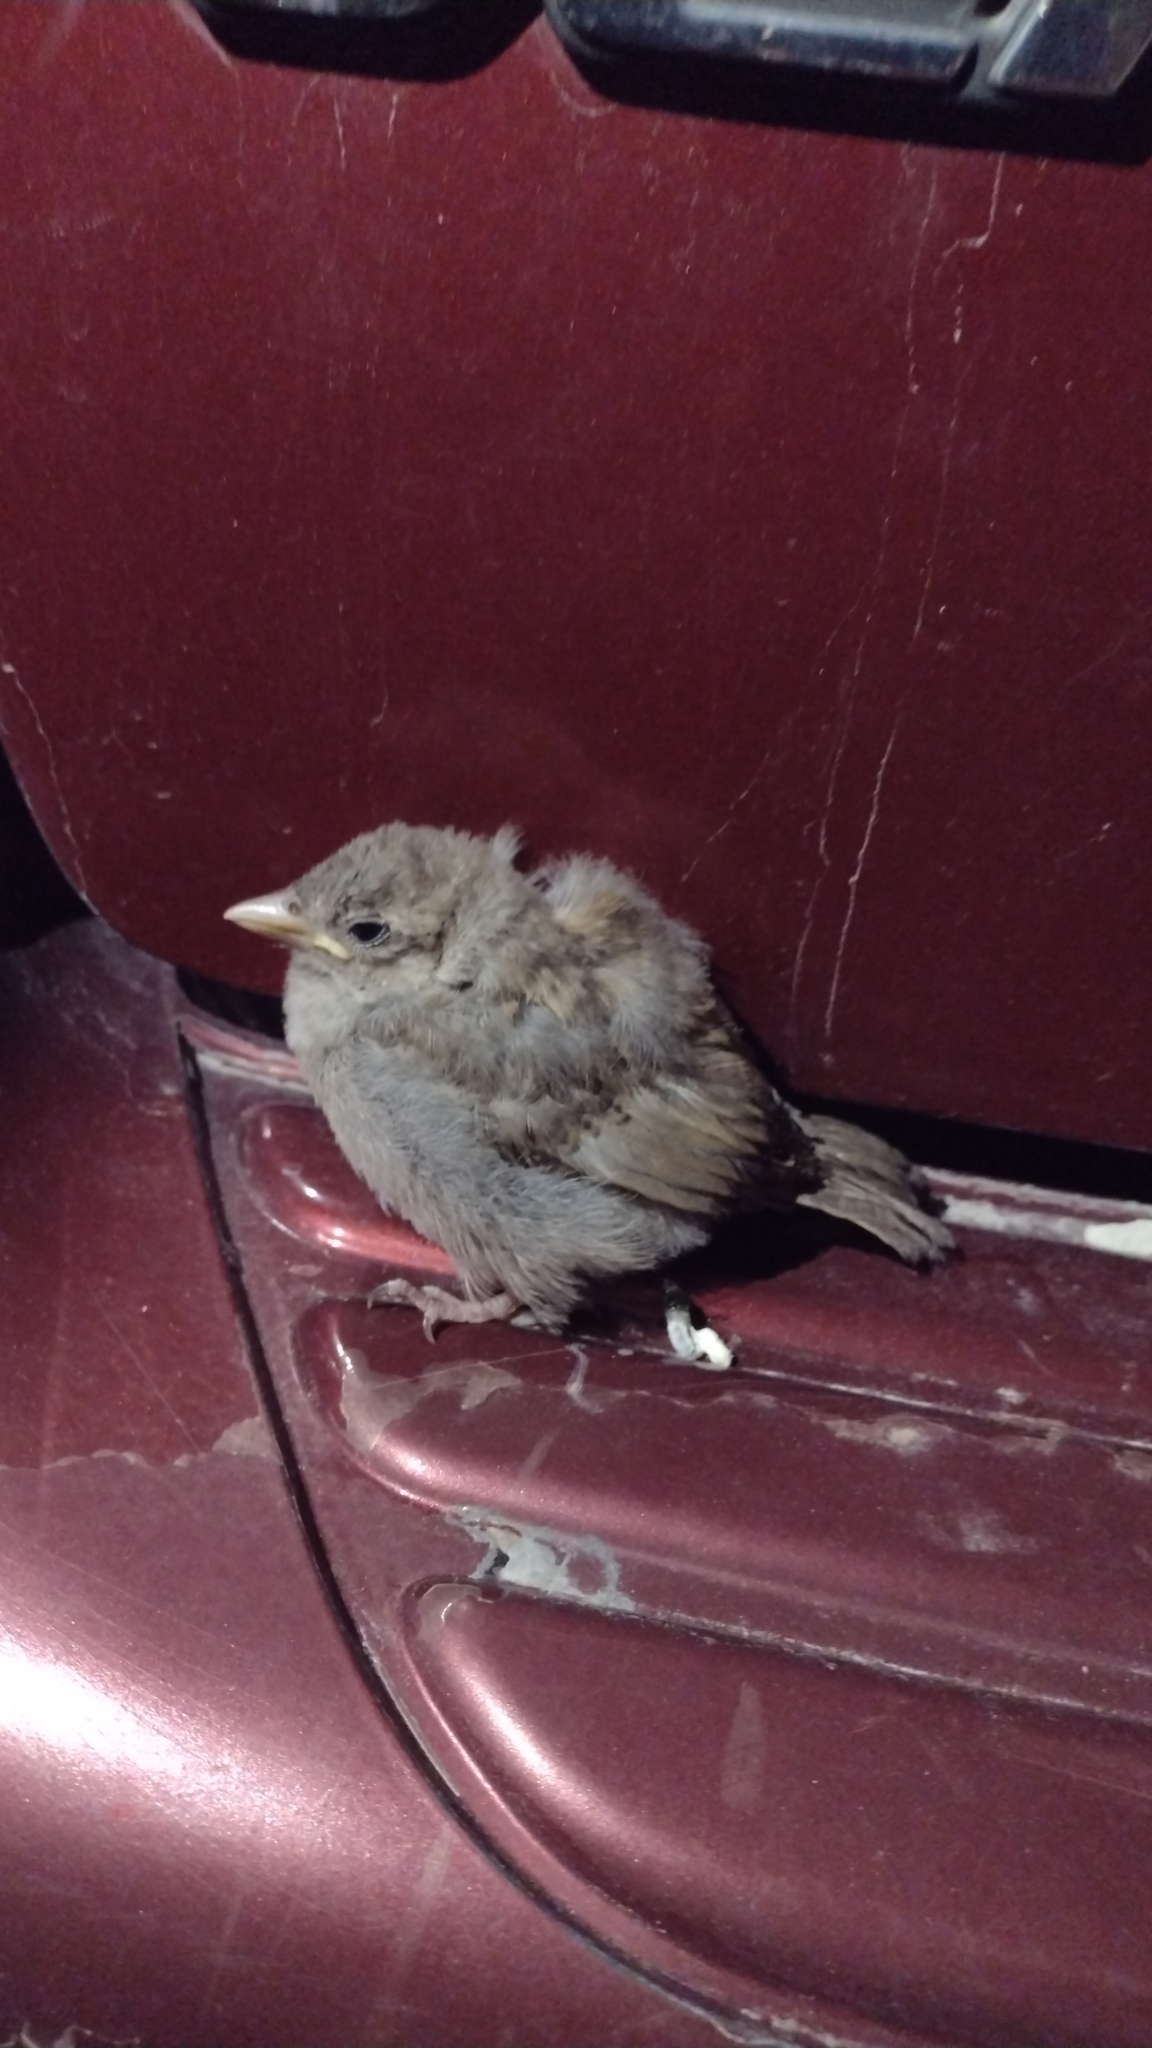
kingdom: Animalia
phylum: Chordata
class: Aves
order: Passeriformes
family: Passeridae
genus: Passer
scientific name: Passer domesticus
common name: House sparrow
